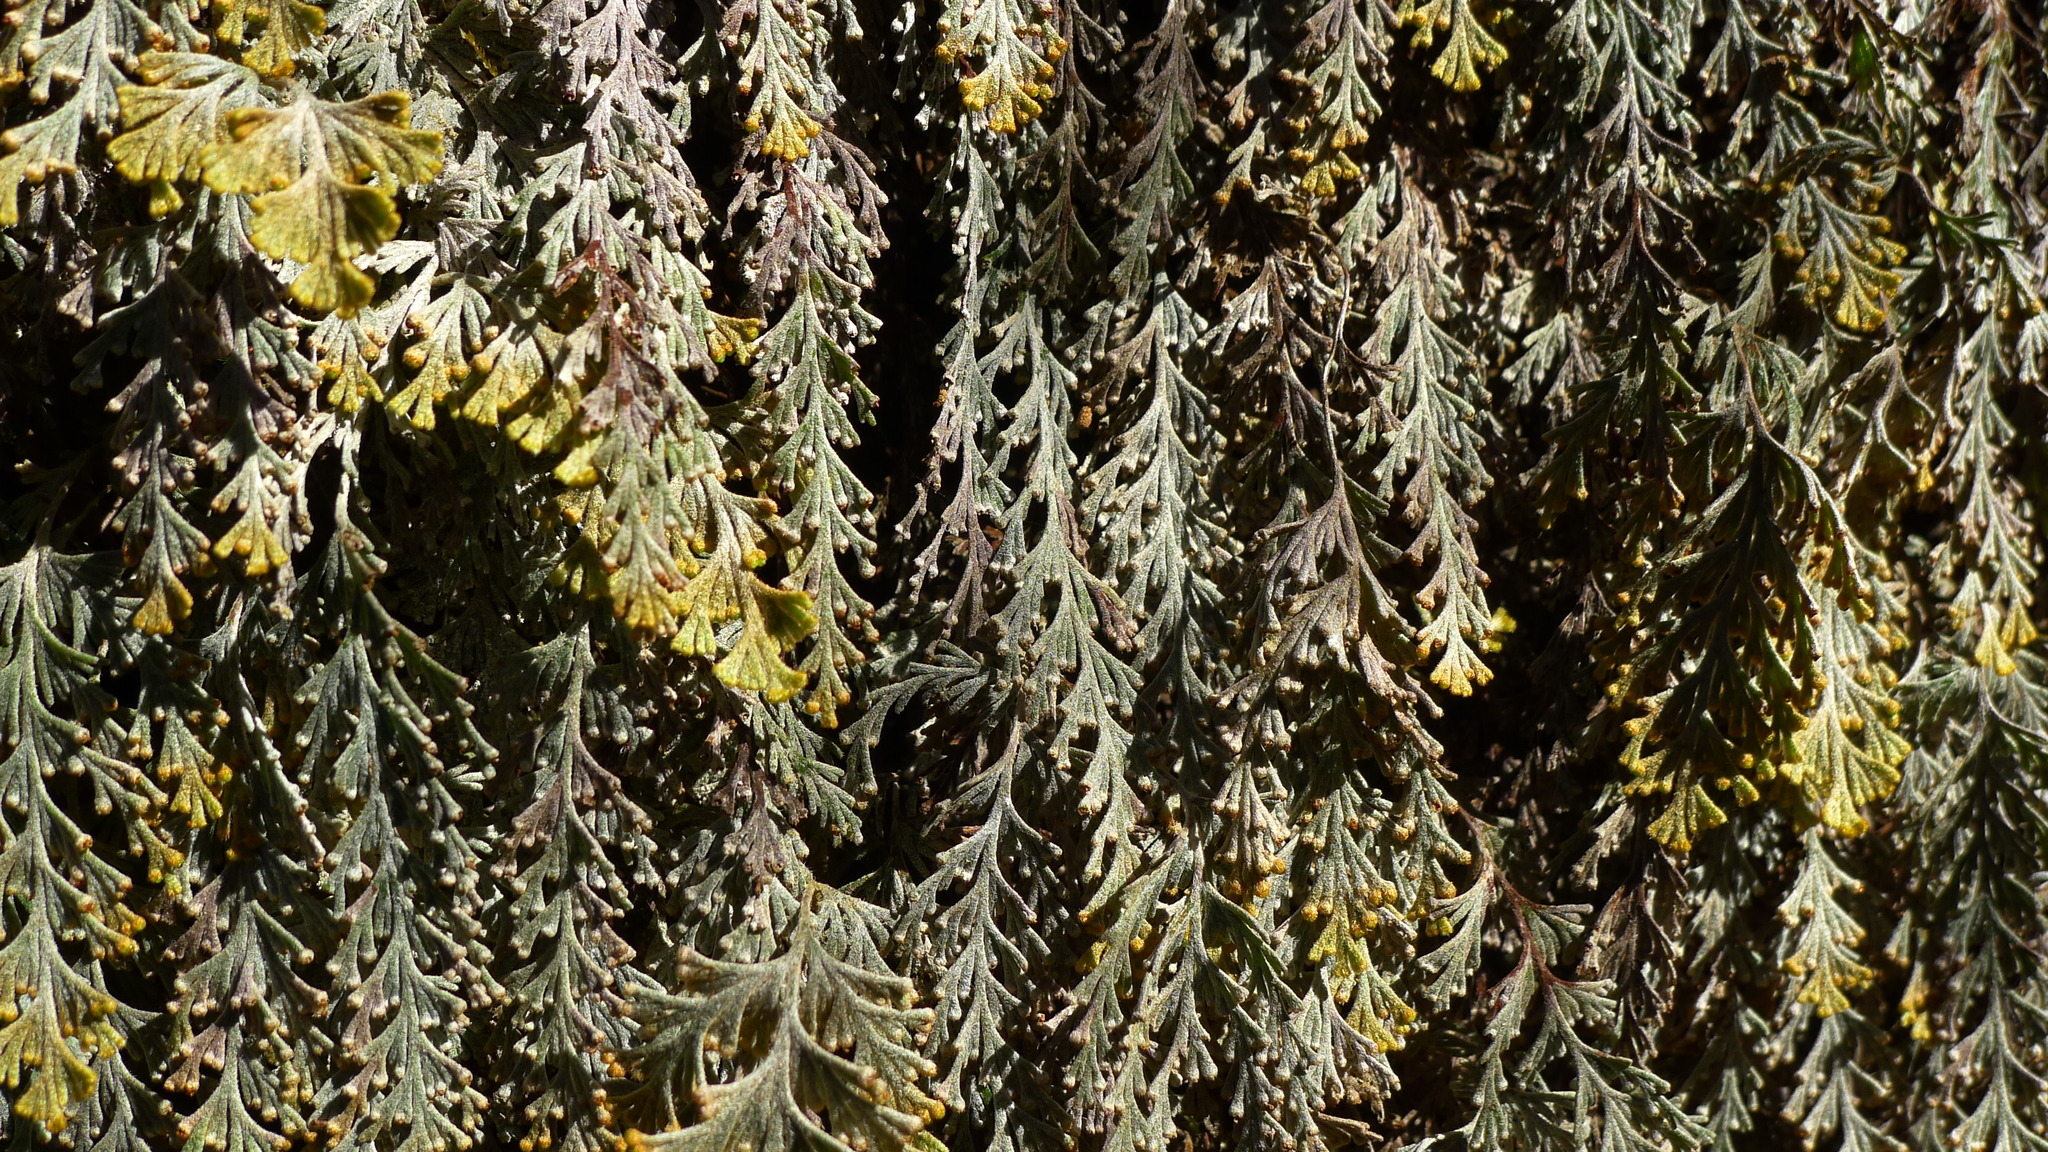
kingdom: Plantae
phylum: Tracheophyta
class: Polypodiopsida
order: Hymenophyllales
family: Hymenophyllaceae
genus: Hymenophyllum
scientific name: Hymenophyllum malingii
